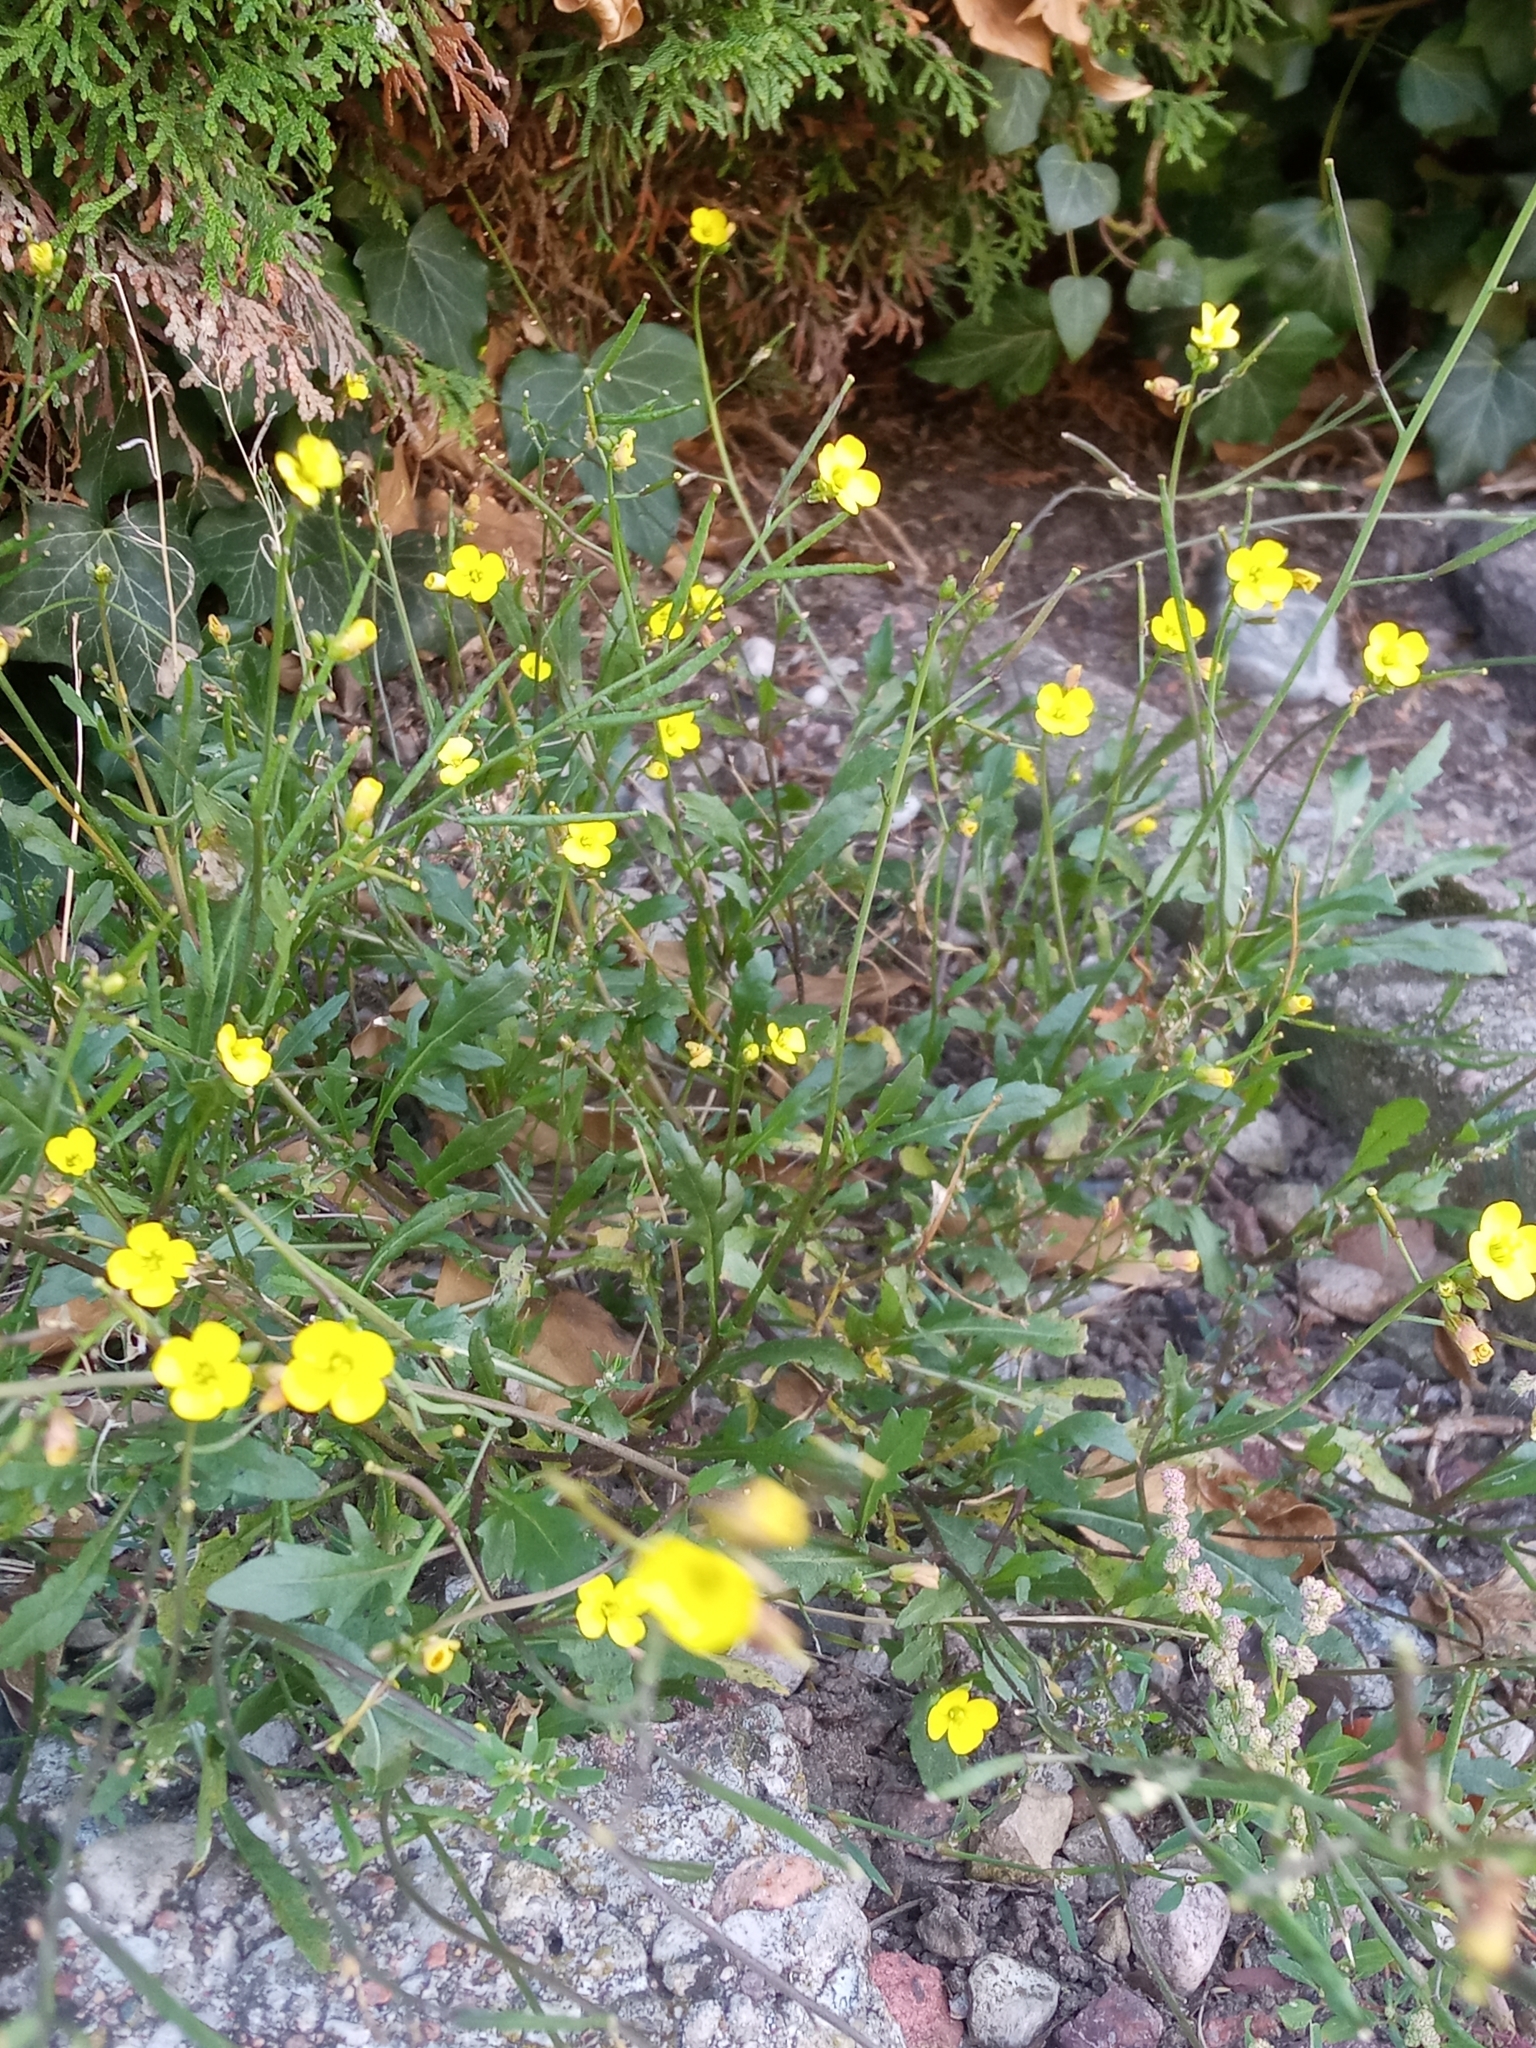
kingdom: Plantae
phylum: Tracheophyta
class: Magnoliopsida
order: Brassicales
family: Brassicaceae
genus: Diplotaxis
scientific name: Diplotaxis muralis
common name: Annual wall-rocket
